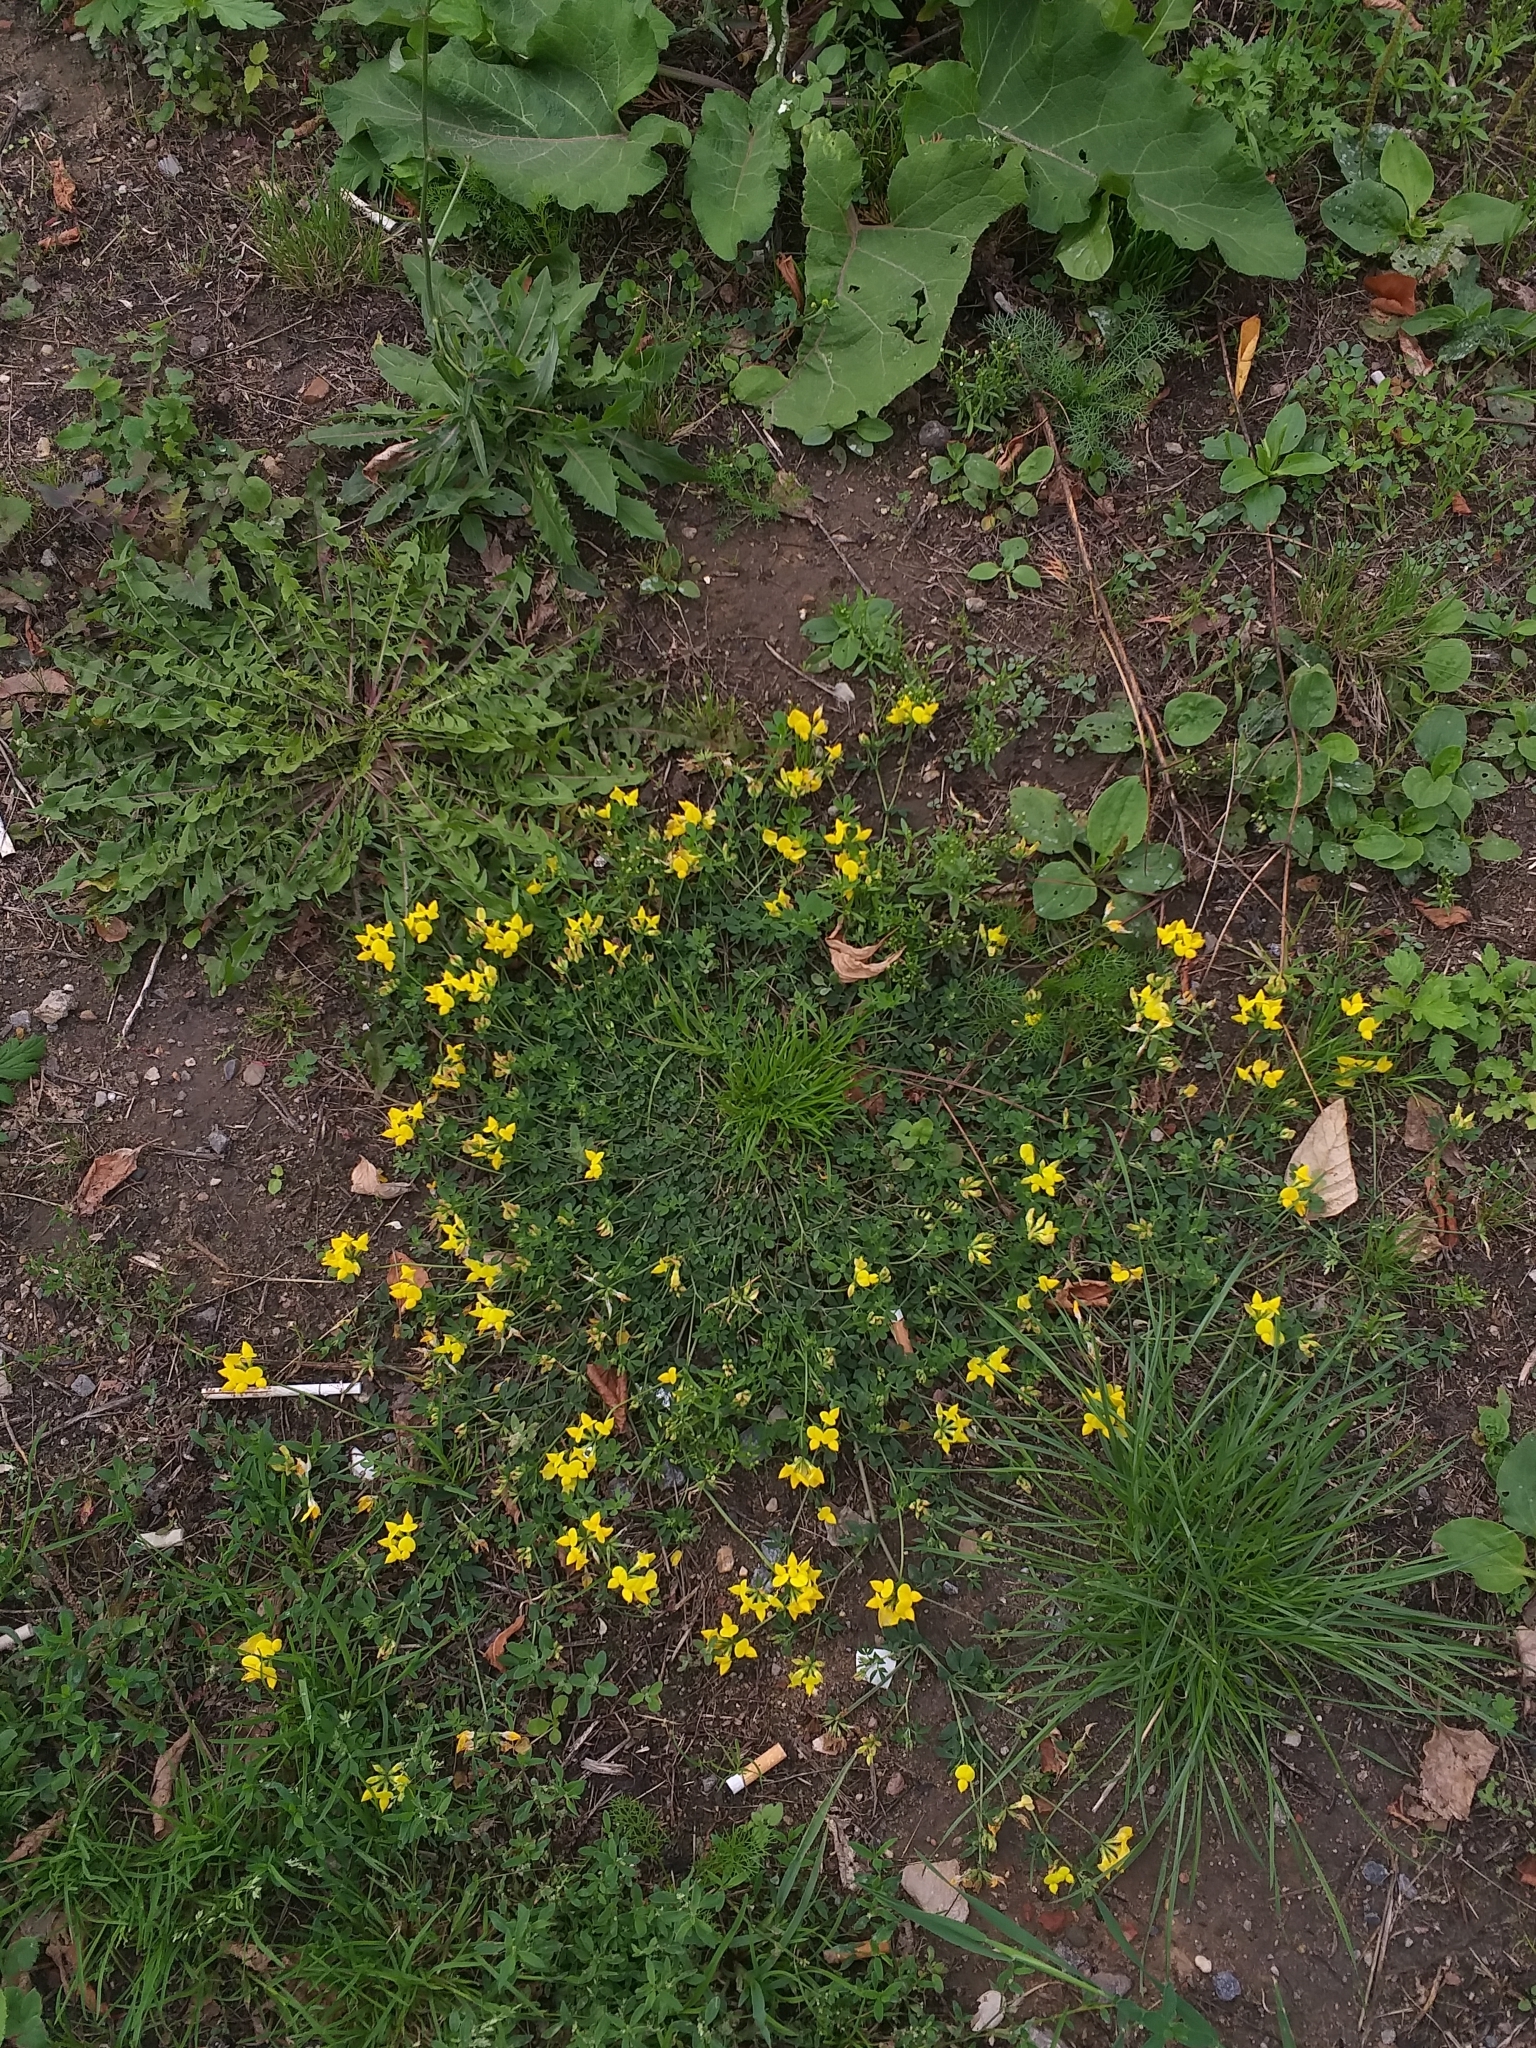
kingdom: Plantae
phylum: Tracheophyta
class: Magnoliopsida
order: Fabales
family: Fabaceae
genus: Lotus
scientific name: Lotus corniculatus
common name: Common bird's-foot-trefoil
